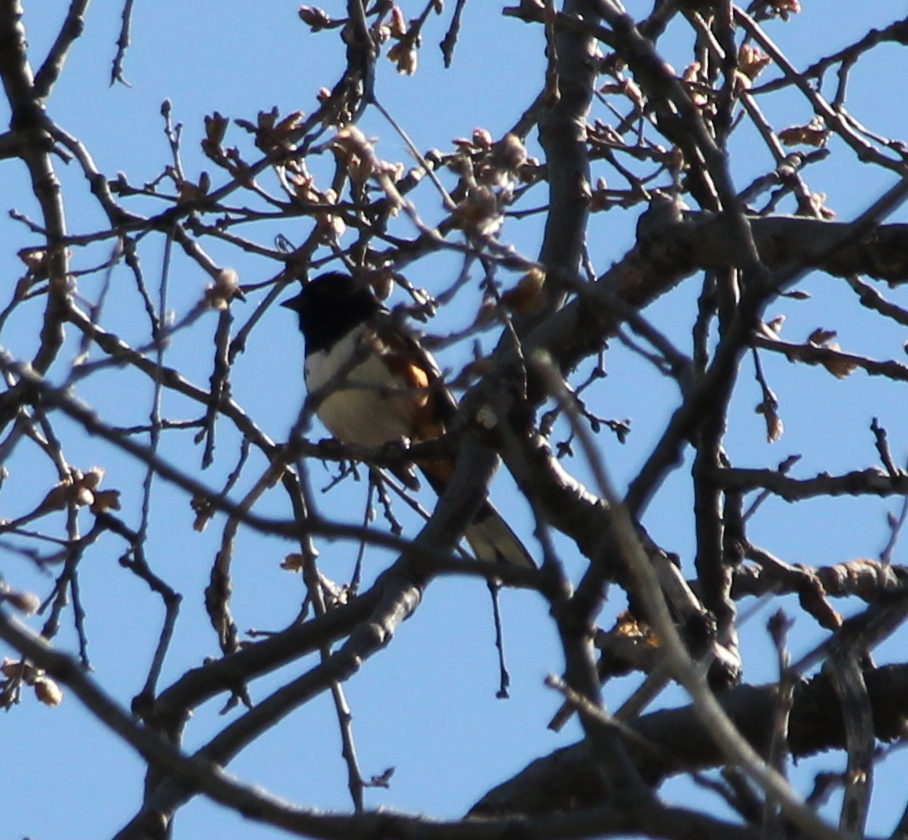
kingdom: Animalia
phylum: Chordata
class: Aves
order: Passeriformes
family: Passerellidae
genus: Pipilo
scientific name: Pipilo maculatus
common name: Spotted towhee
